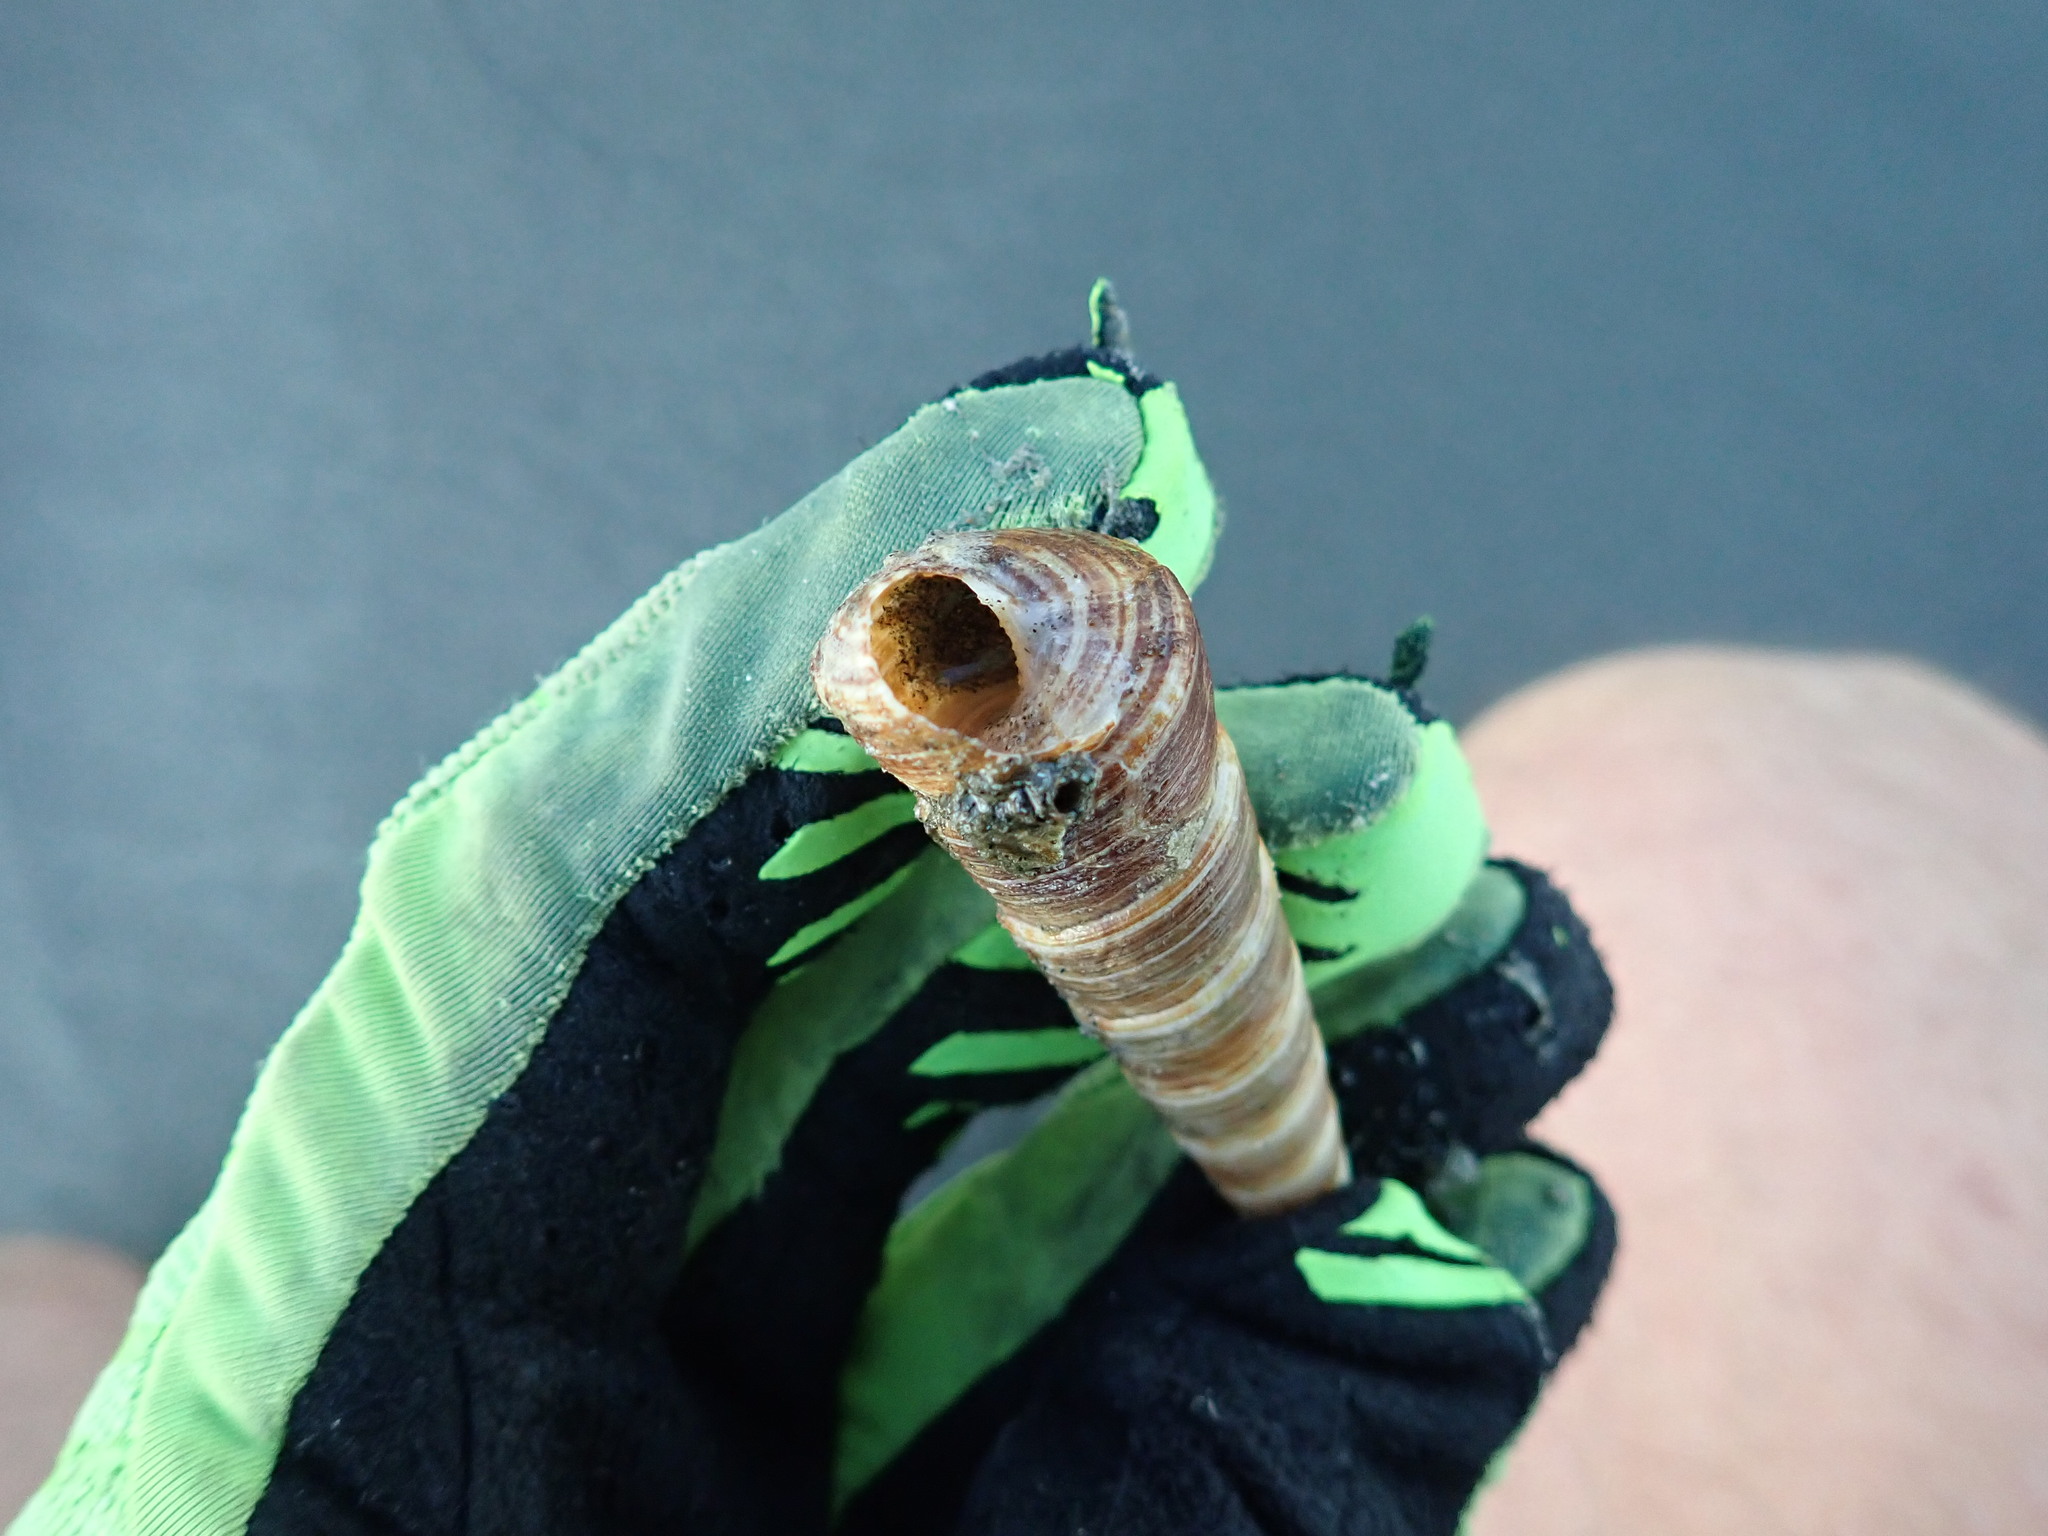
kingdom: Animalia
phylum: Mollusca
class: Gastropoda
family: Turritellidae
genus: Zeacolpus
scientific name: Zeacolpus vittatus
